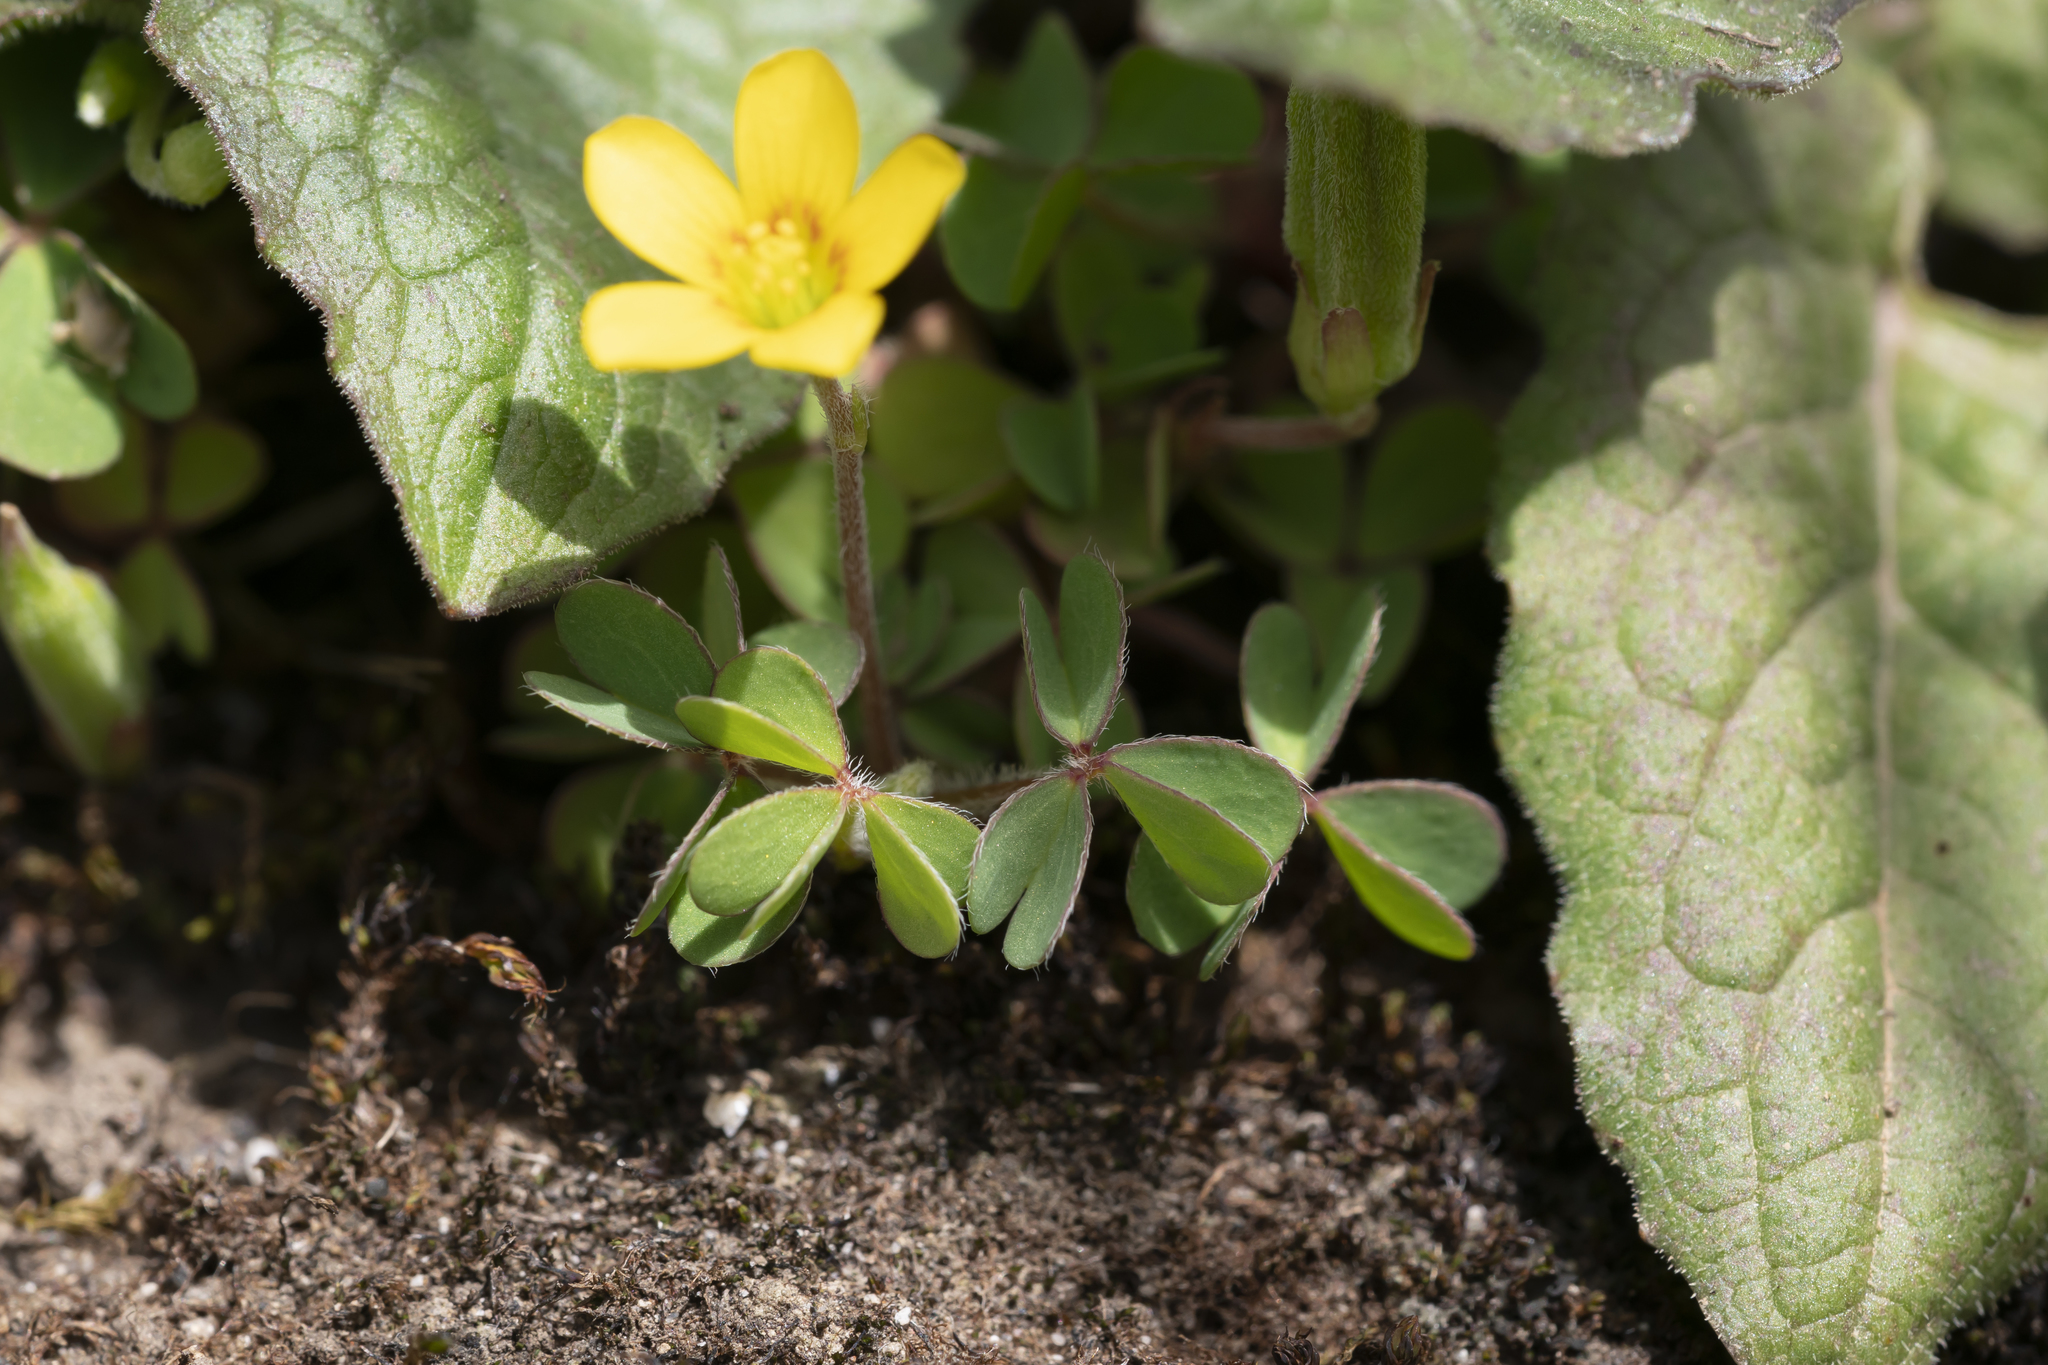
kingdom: Plantae
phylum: Tracheophyta
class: Magnoliopsida
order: Oxalidales
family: Oxalidaceae
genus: Oxalis
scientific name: Oxalis corniculata
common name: Procumbent yellow-sorrel
